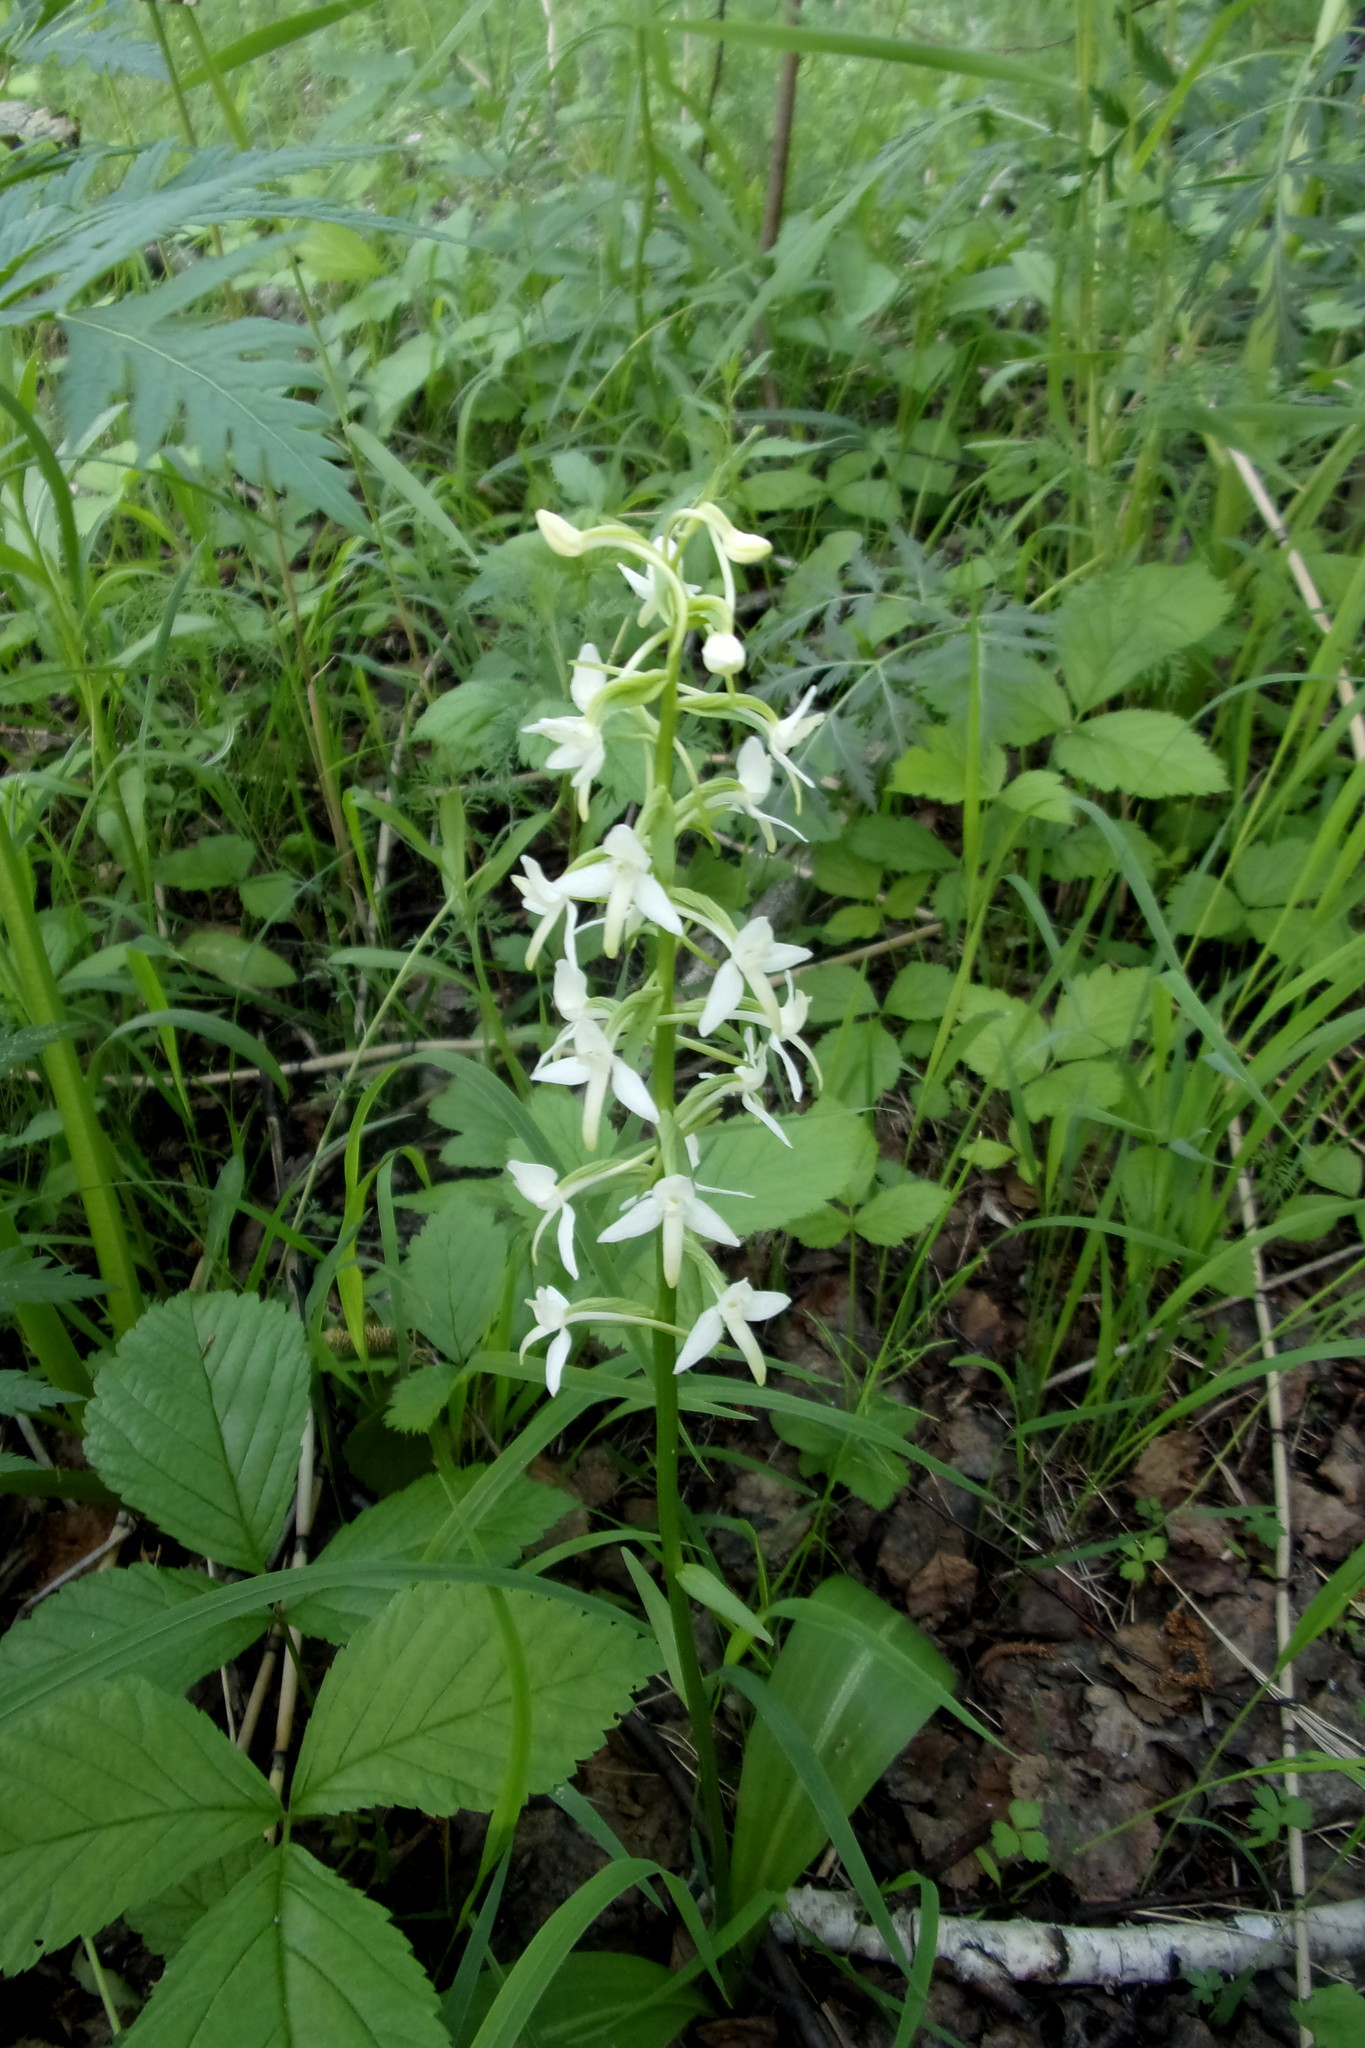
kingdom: Plantae
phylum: Tracheophyta
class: Liliopsida
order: Asparagales
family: Orchidaceae
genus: Platanthera
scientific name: Platanthera bifolia
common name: Lesser butterfly-orchid
